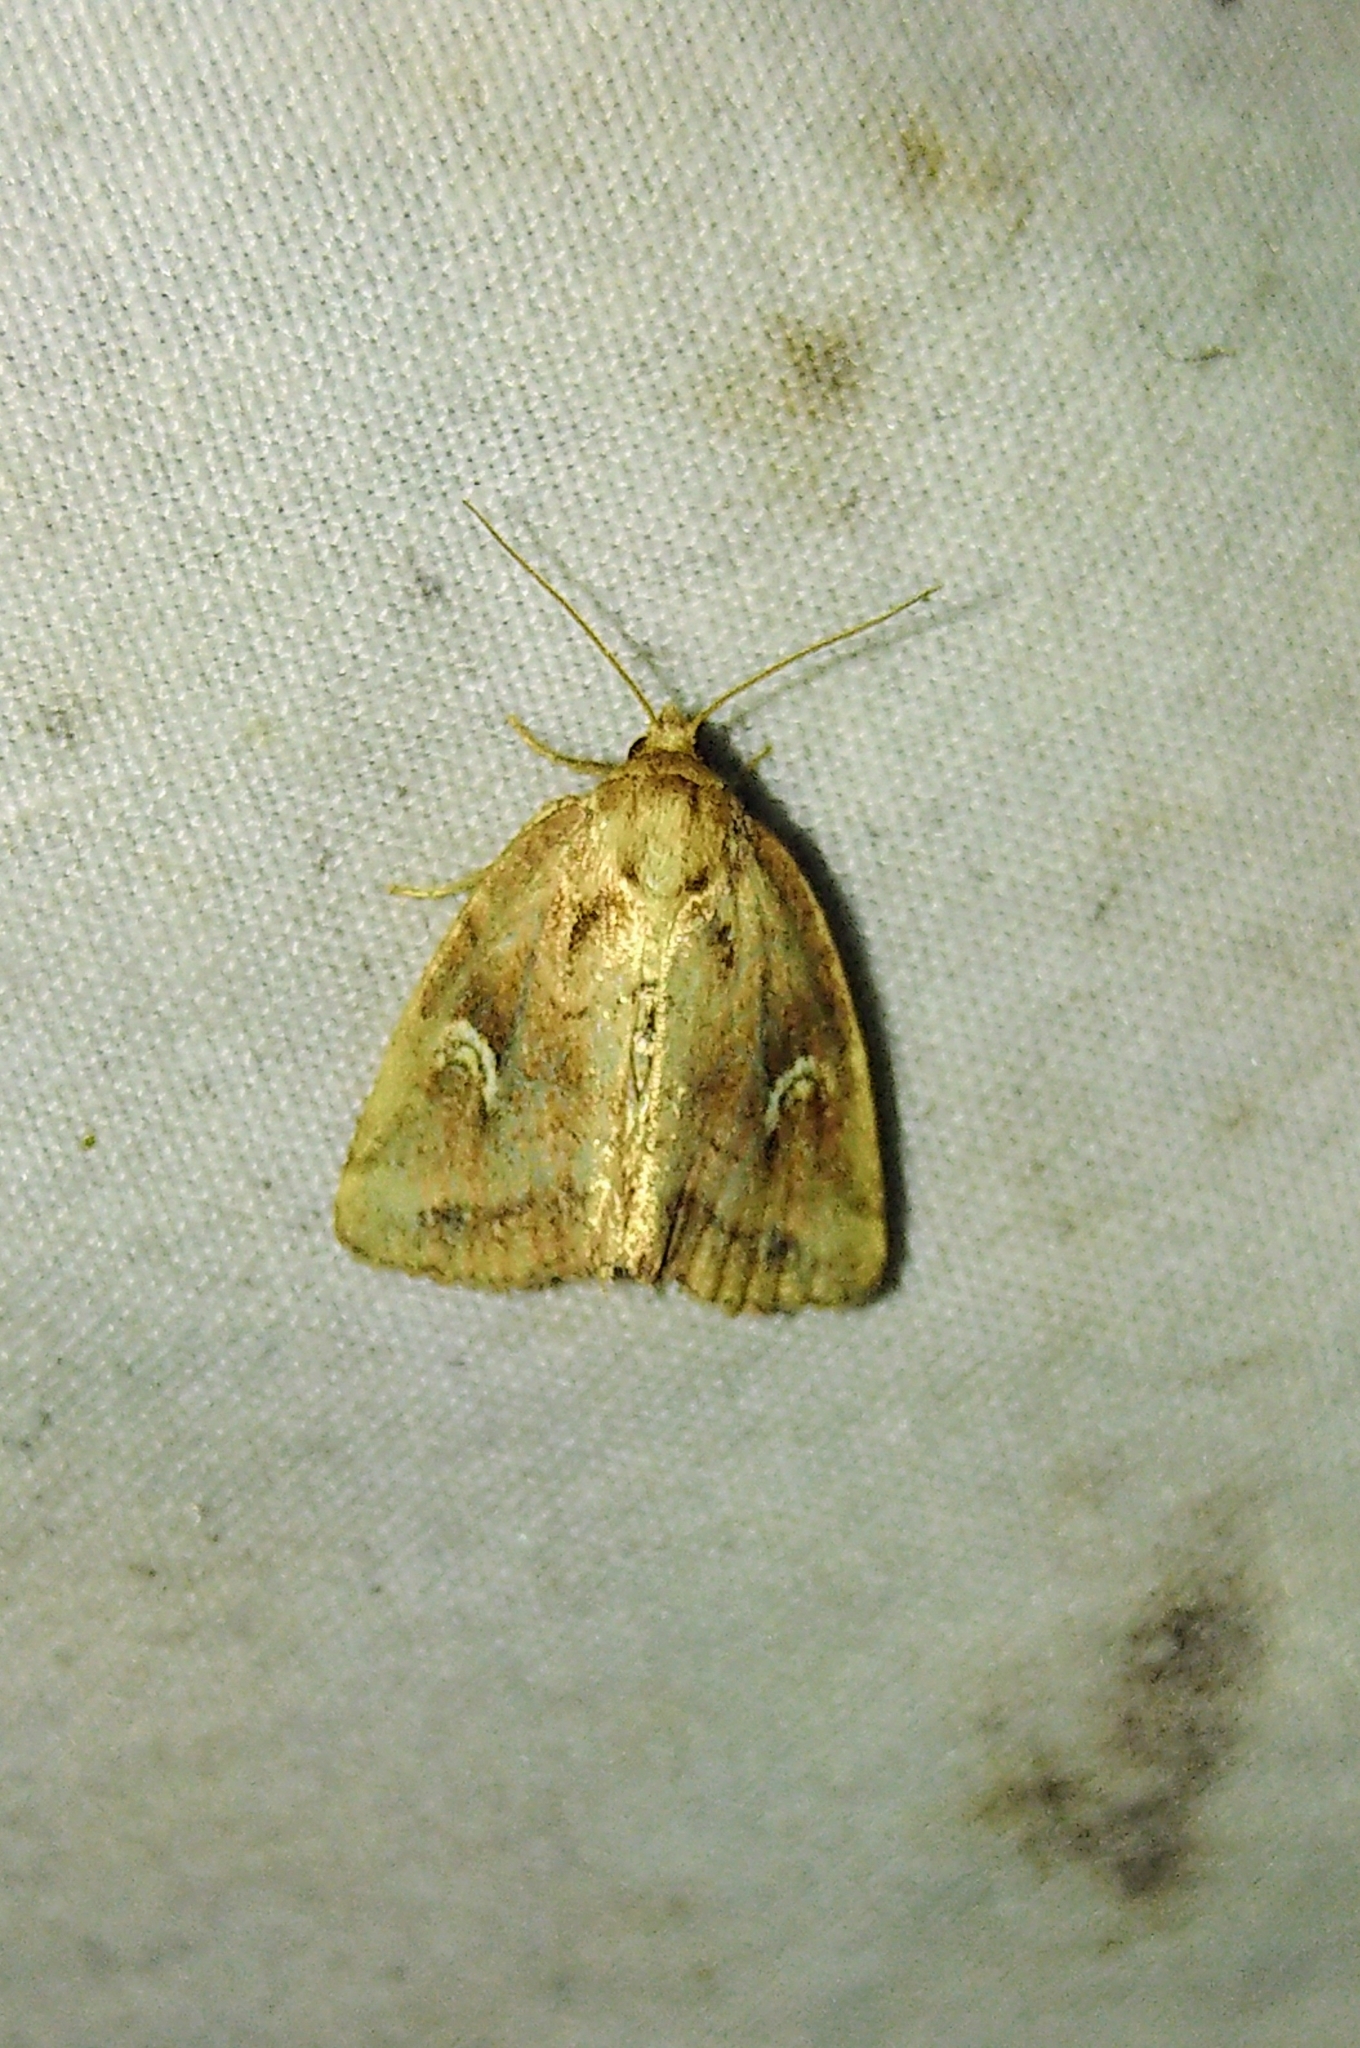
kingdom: Animalia
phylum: Arthropoda
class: Insecta
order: Lepidoptera
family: Noctuidae
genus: Photedes
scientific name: Photedes includens
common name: Included cordgrass borer moth
